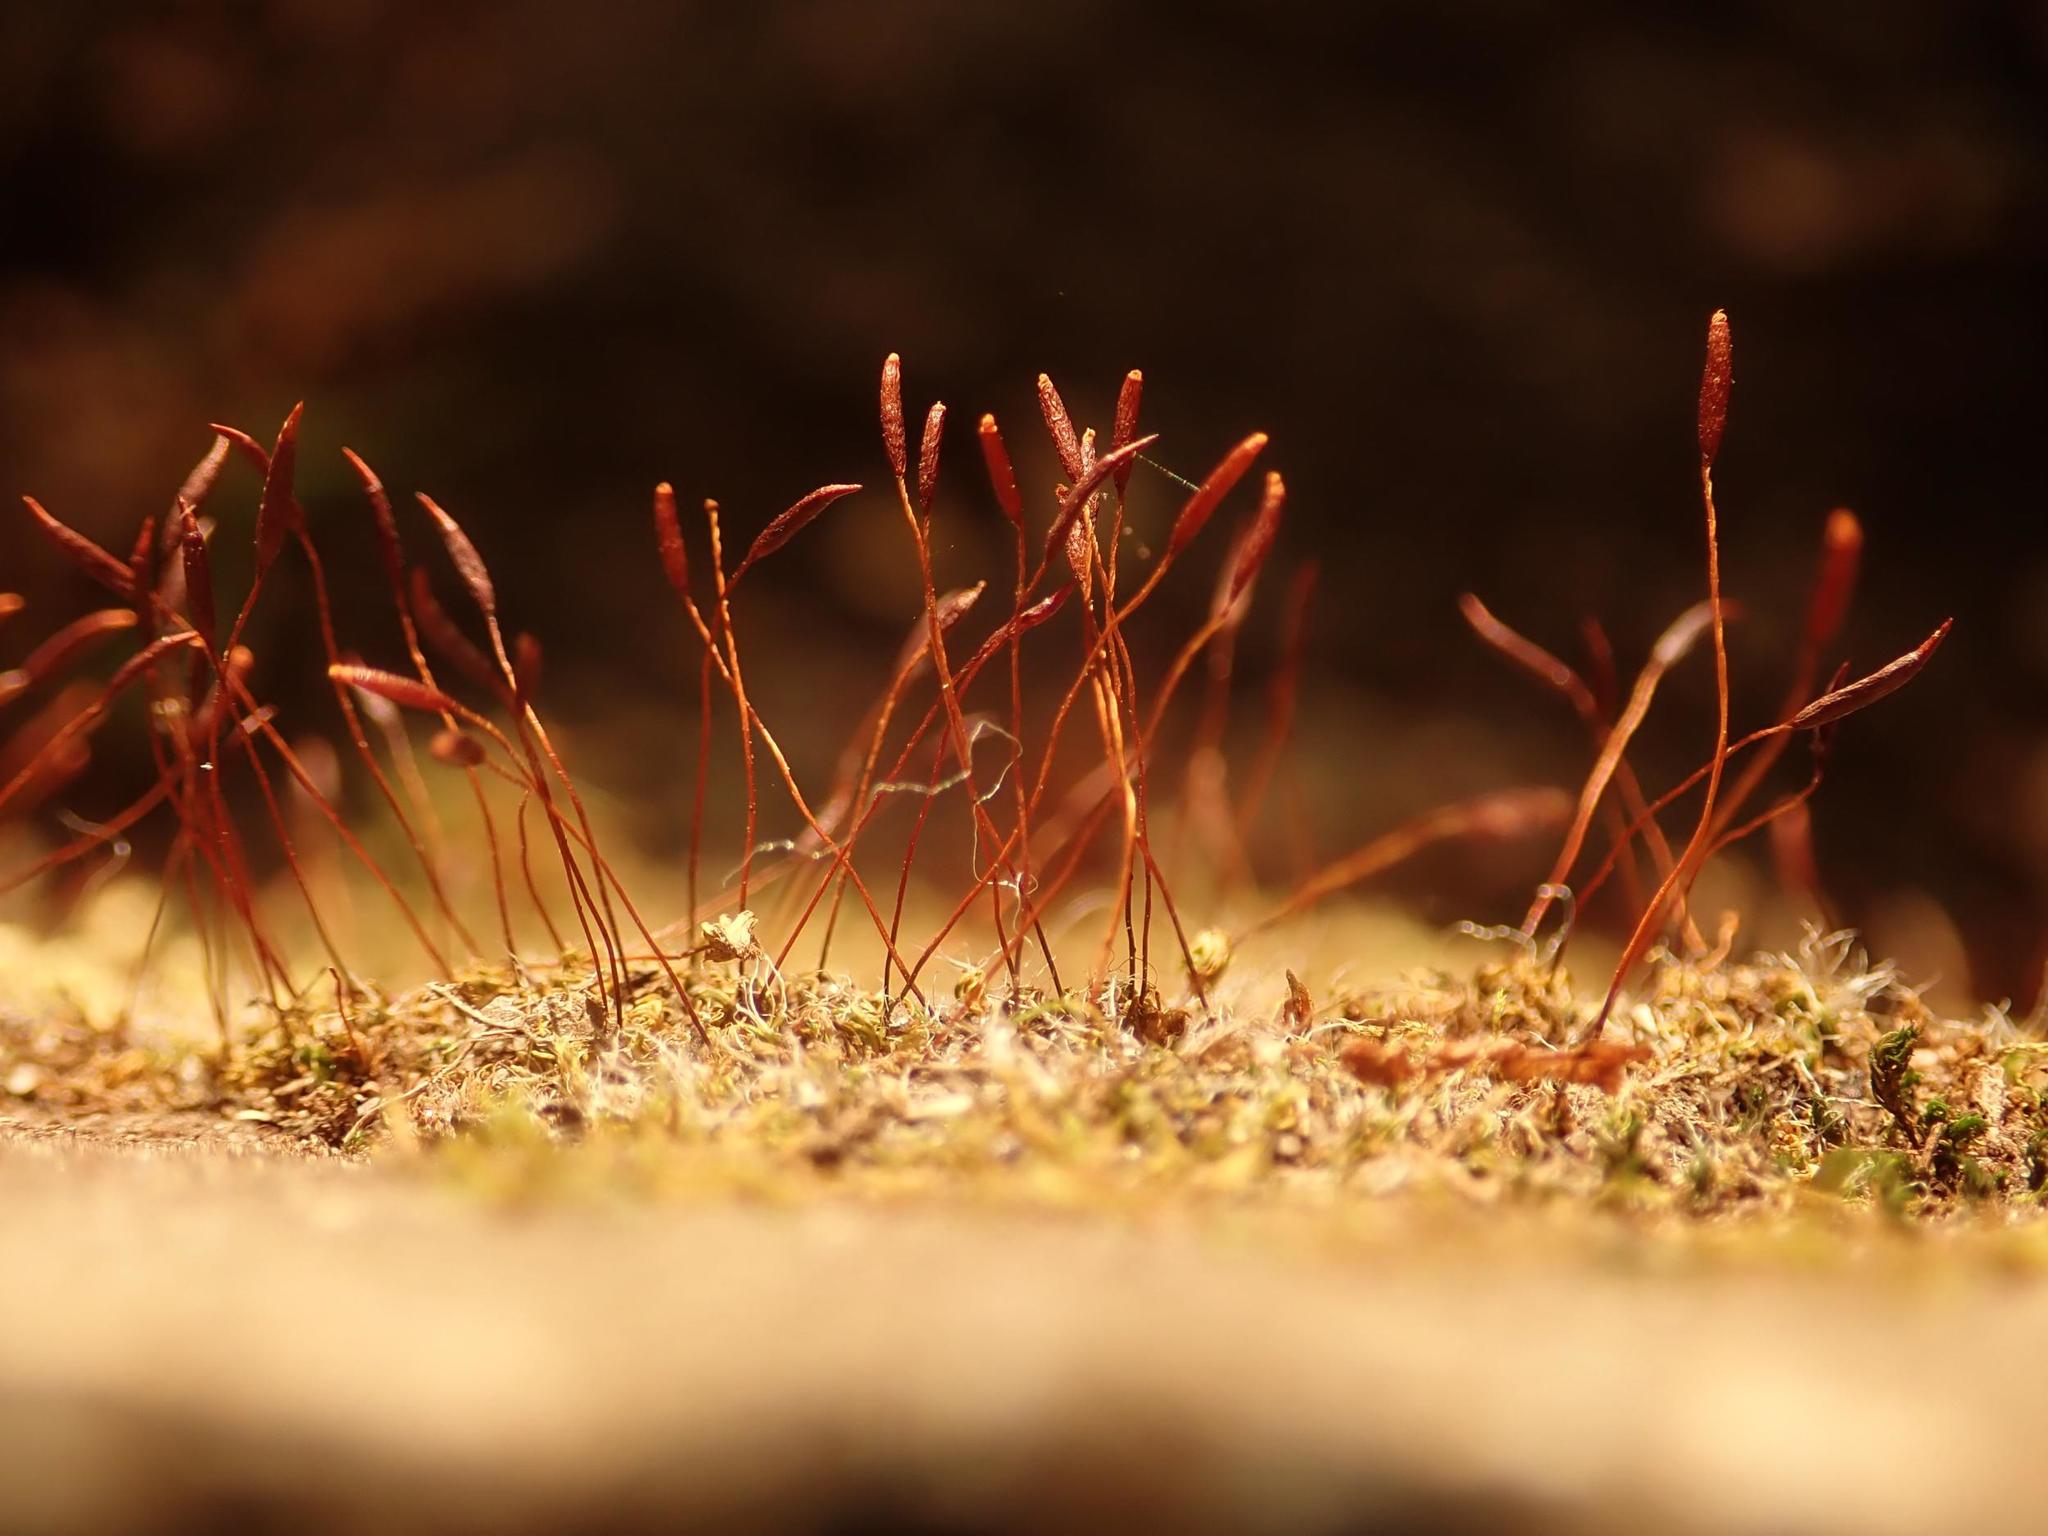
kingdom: Plantae
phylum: Bryophyta
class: Bryopsida
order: Pottiales
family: Pottiaceae
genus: Tortula
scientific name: Tortula muralis
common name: Wall screw-moss
